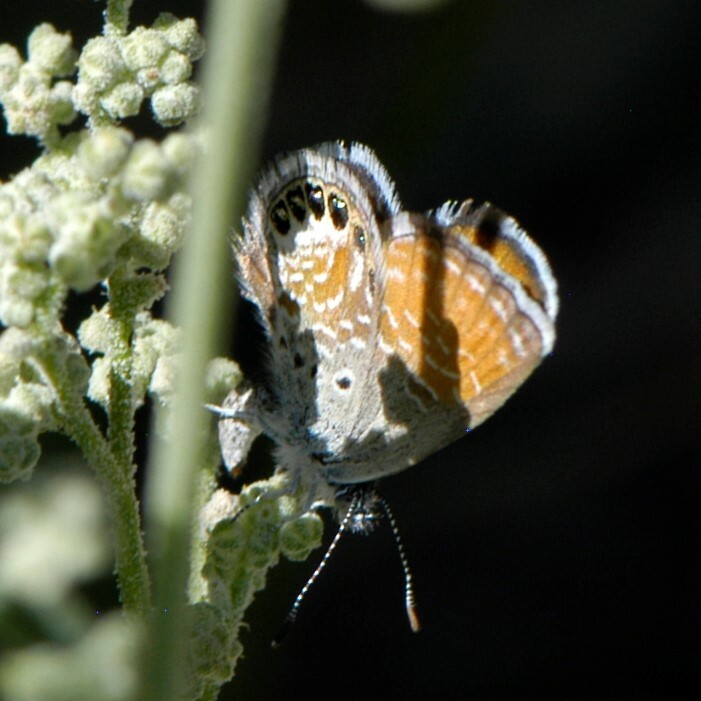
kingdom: Animalia
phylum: Arthropoda
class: Insecta
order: Lepidoptera
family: Lycaenidae
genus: Brephidium
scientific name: Brephidium exilis
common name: Pygmy blue
